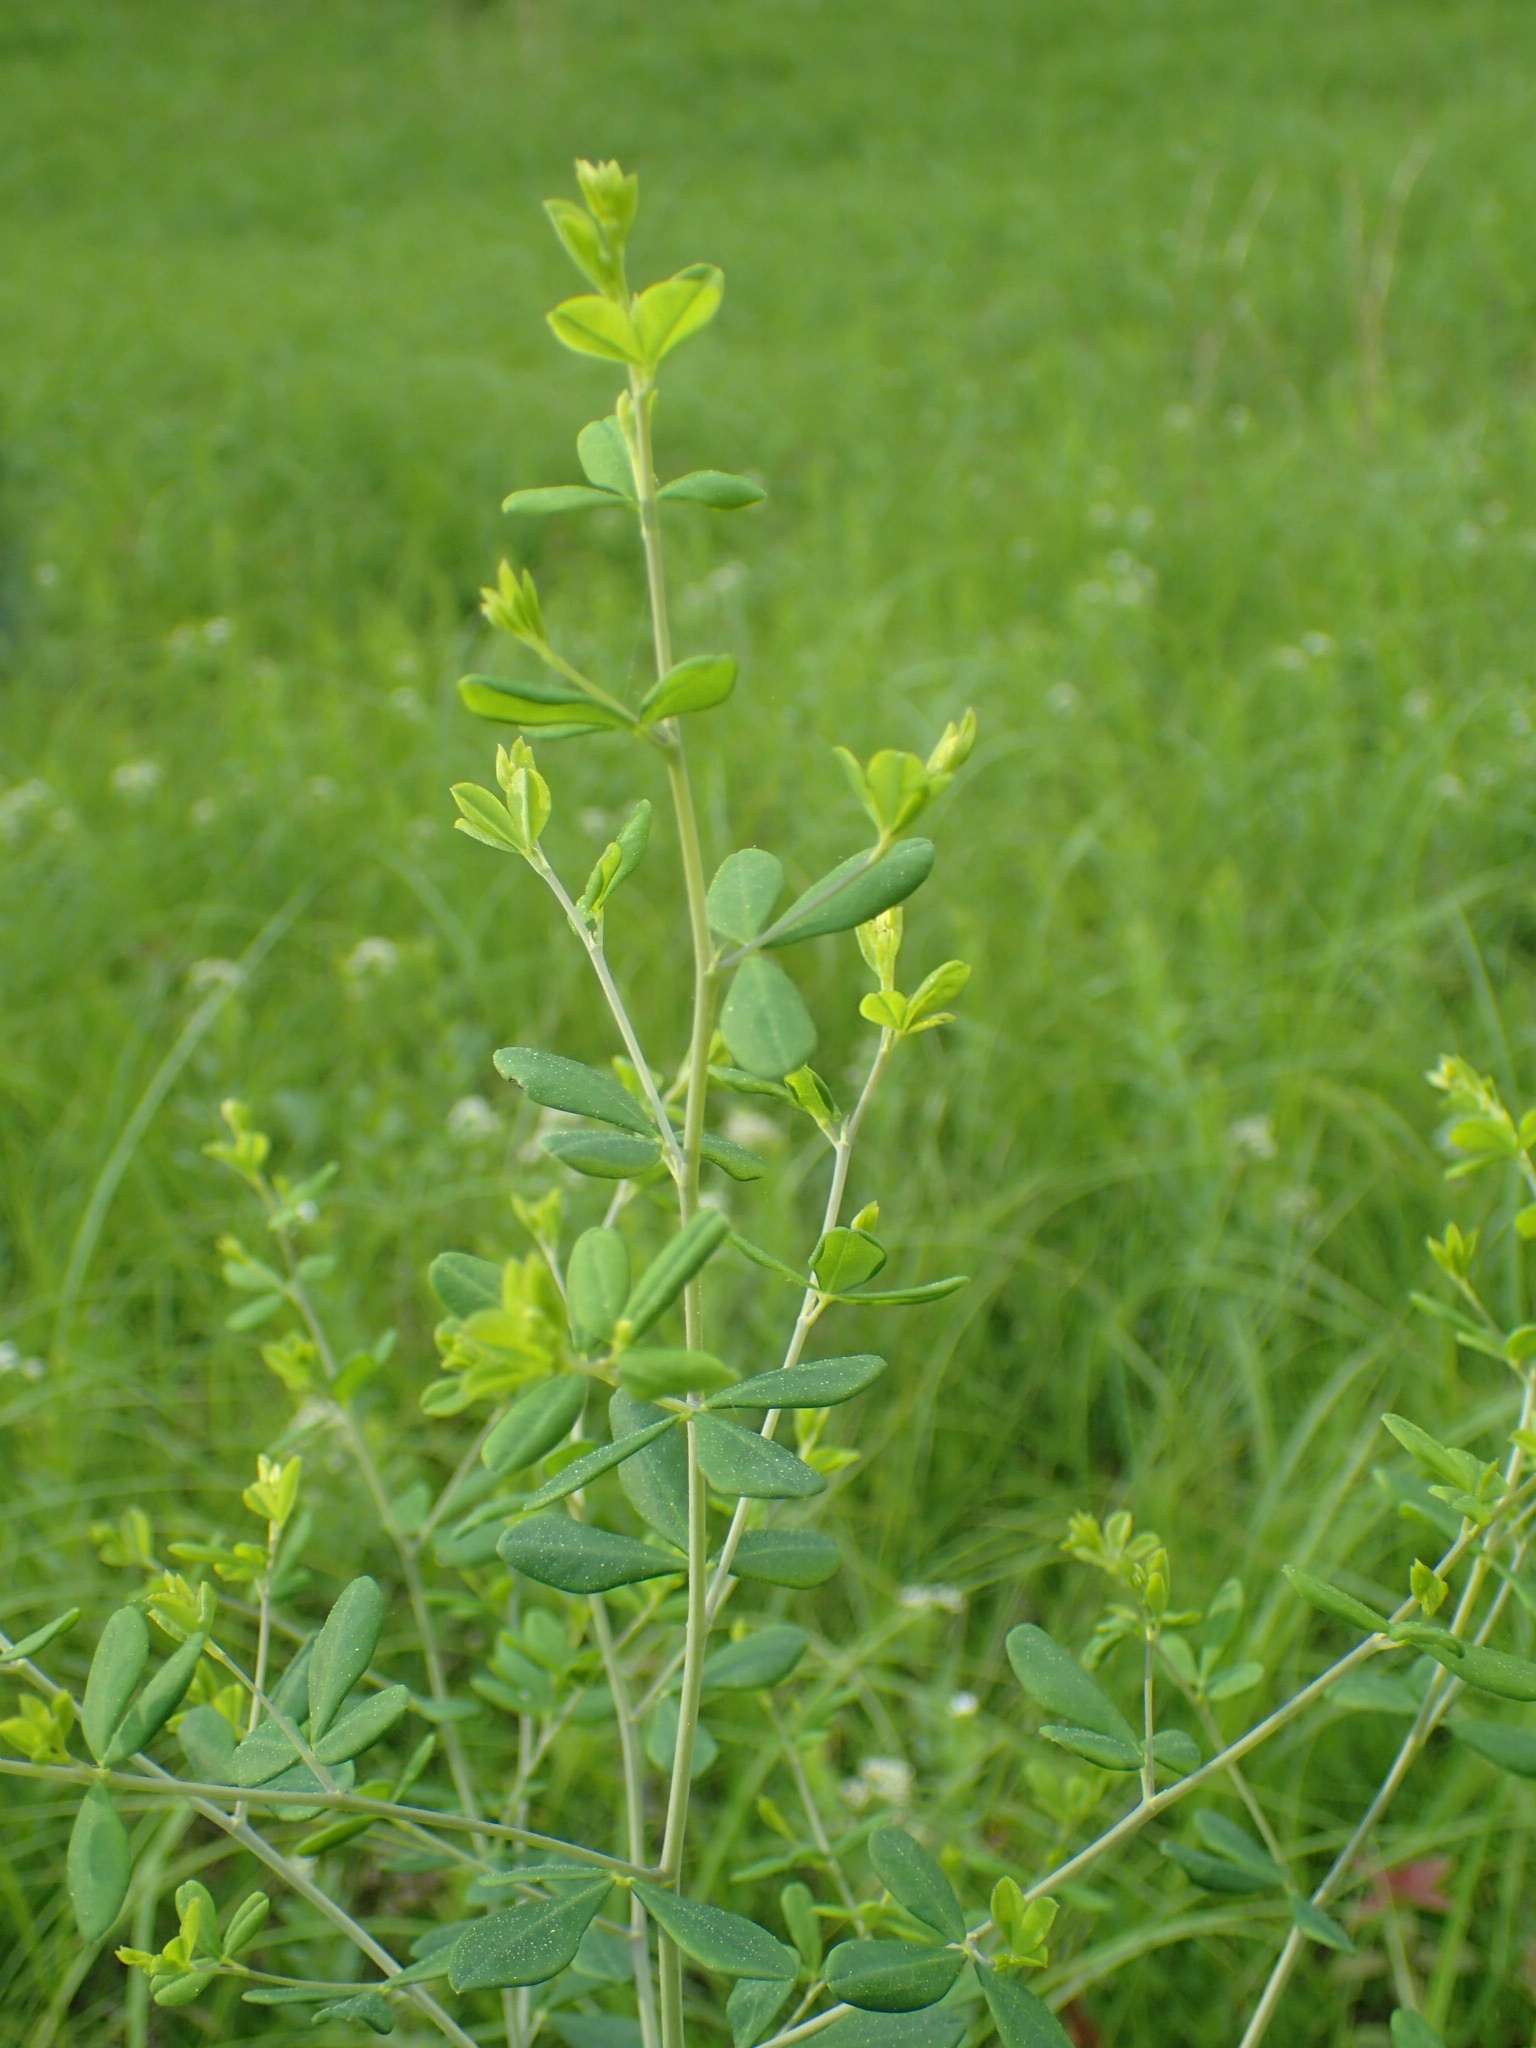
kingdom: Plantae
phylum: Tracheophyta
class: Magnoliopsida
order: Fabales
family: Fabaceae
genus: Baptisia
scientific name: Baptisia tinctoria
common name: Wild indigo
